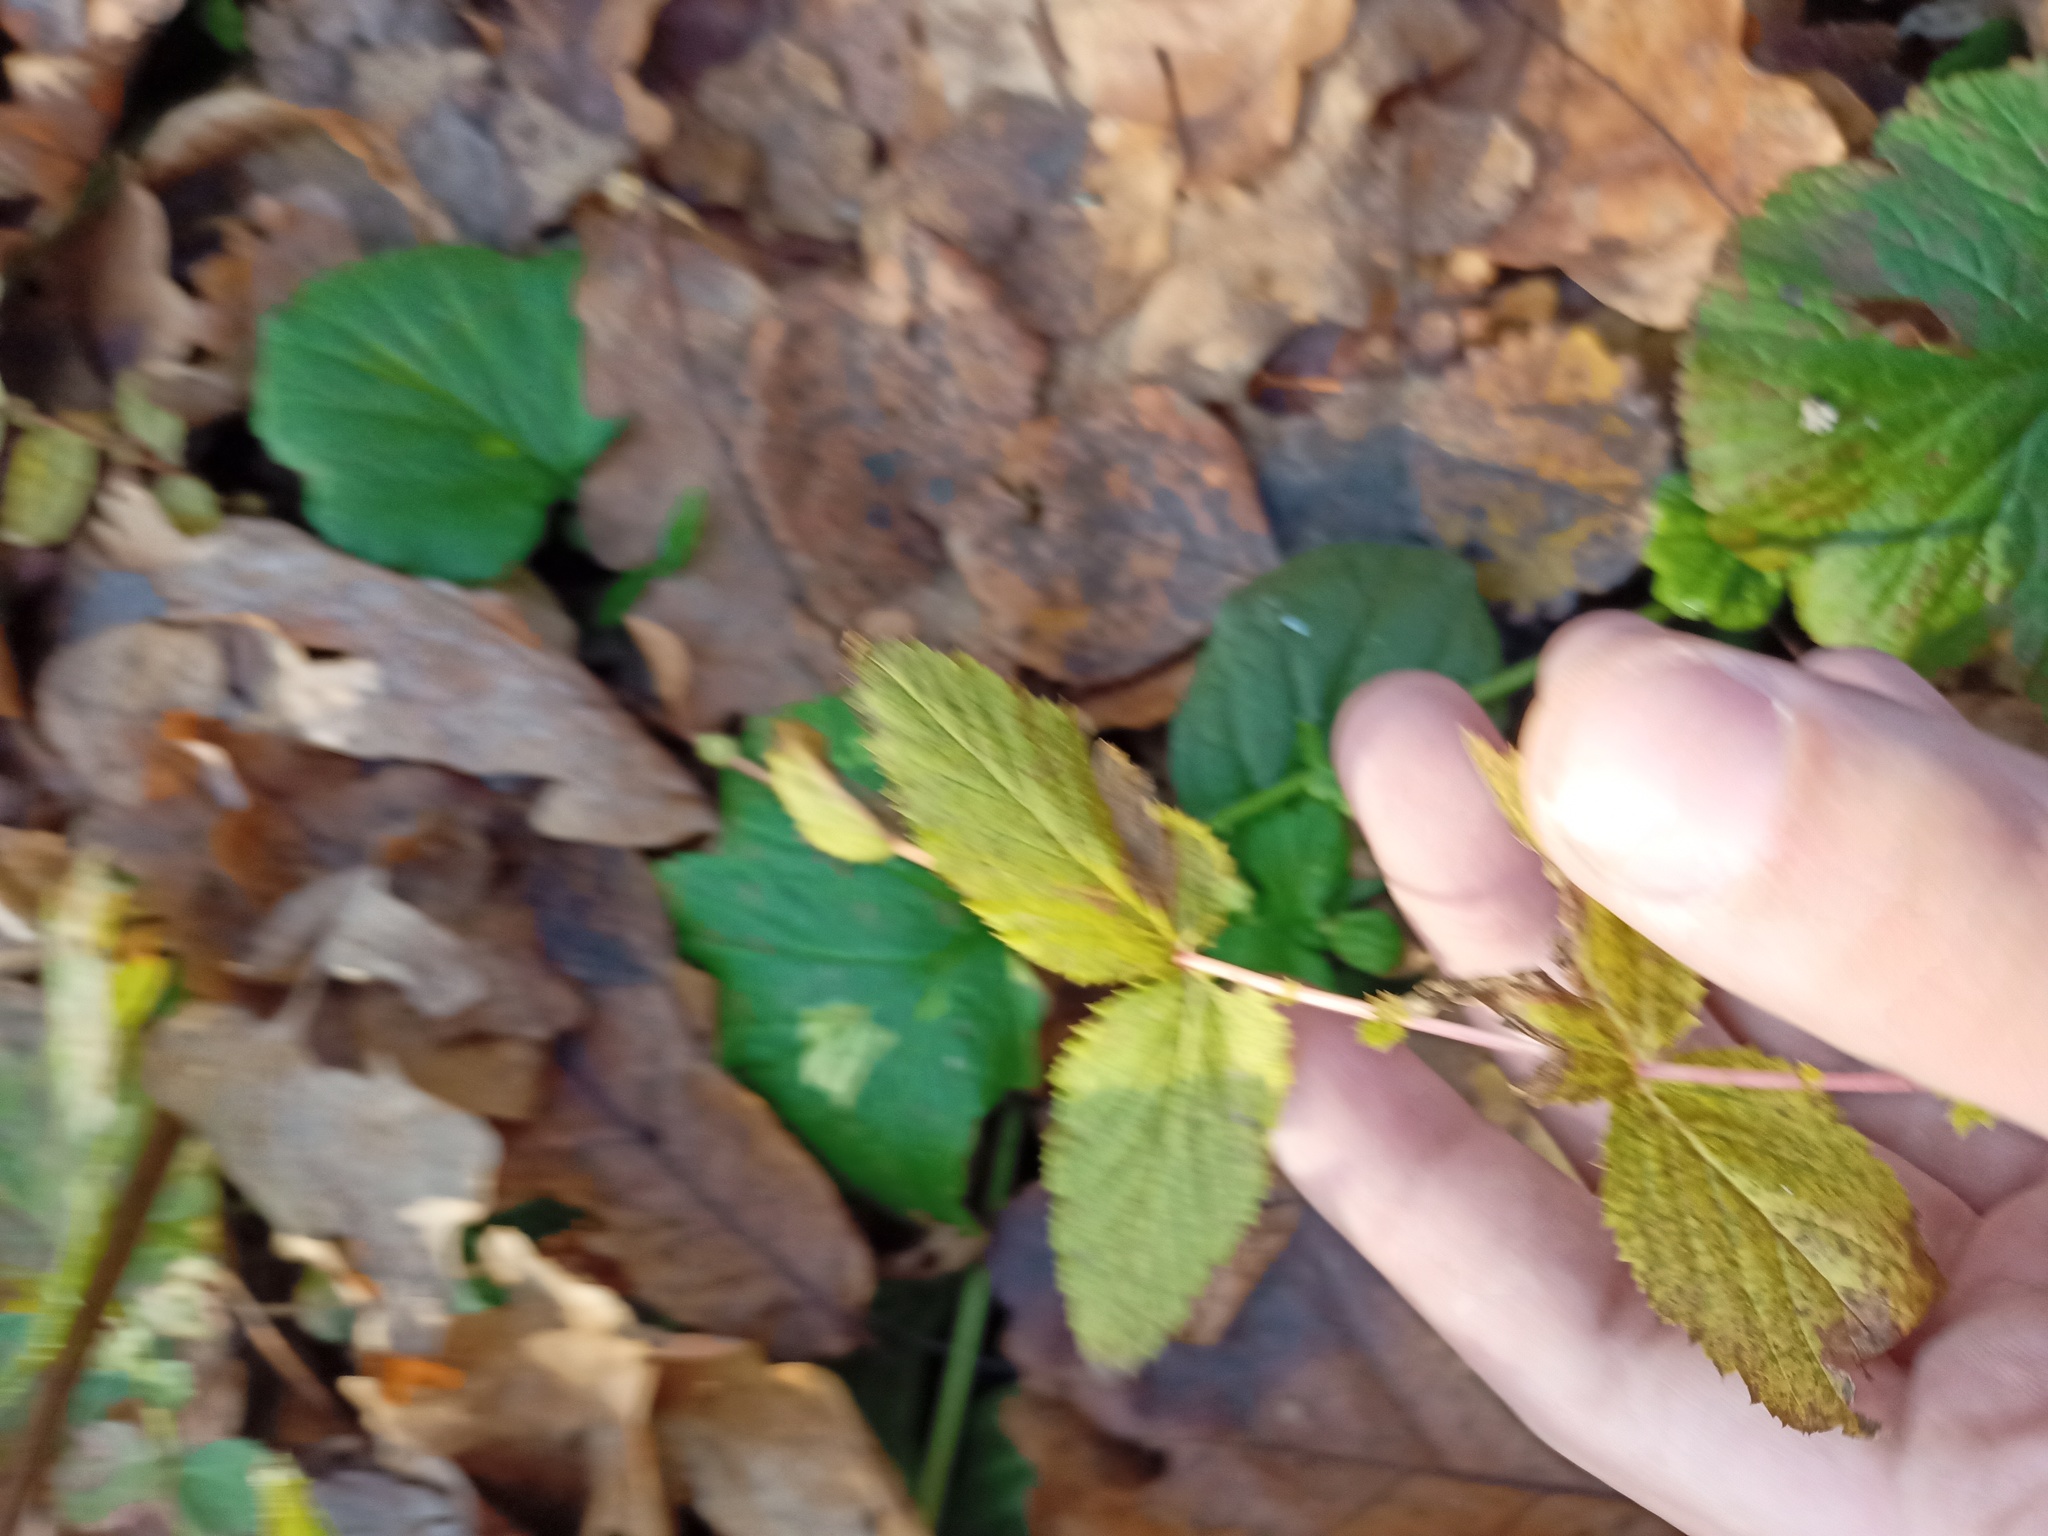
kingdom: Plantae
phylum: Tracheophyta
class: Magnoliopsida
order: Rosales
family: Rosaceae
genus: Filipendula
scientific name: Filipendula ulmaria
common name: Meadowsweet
